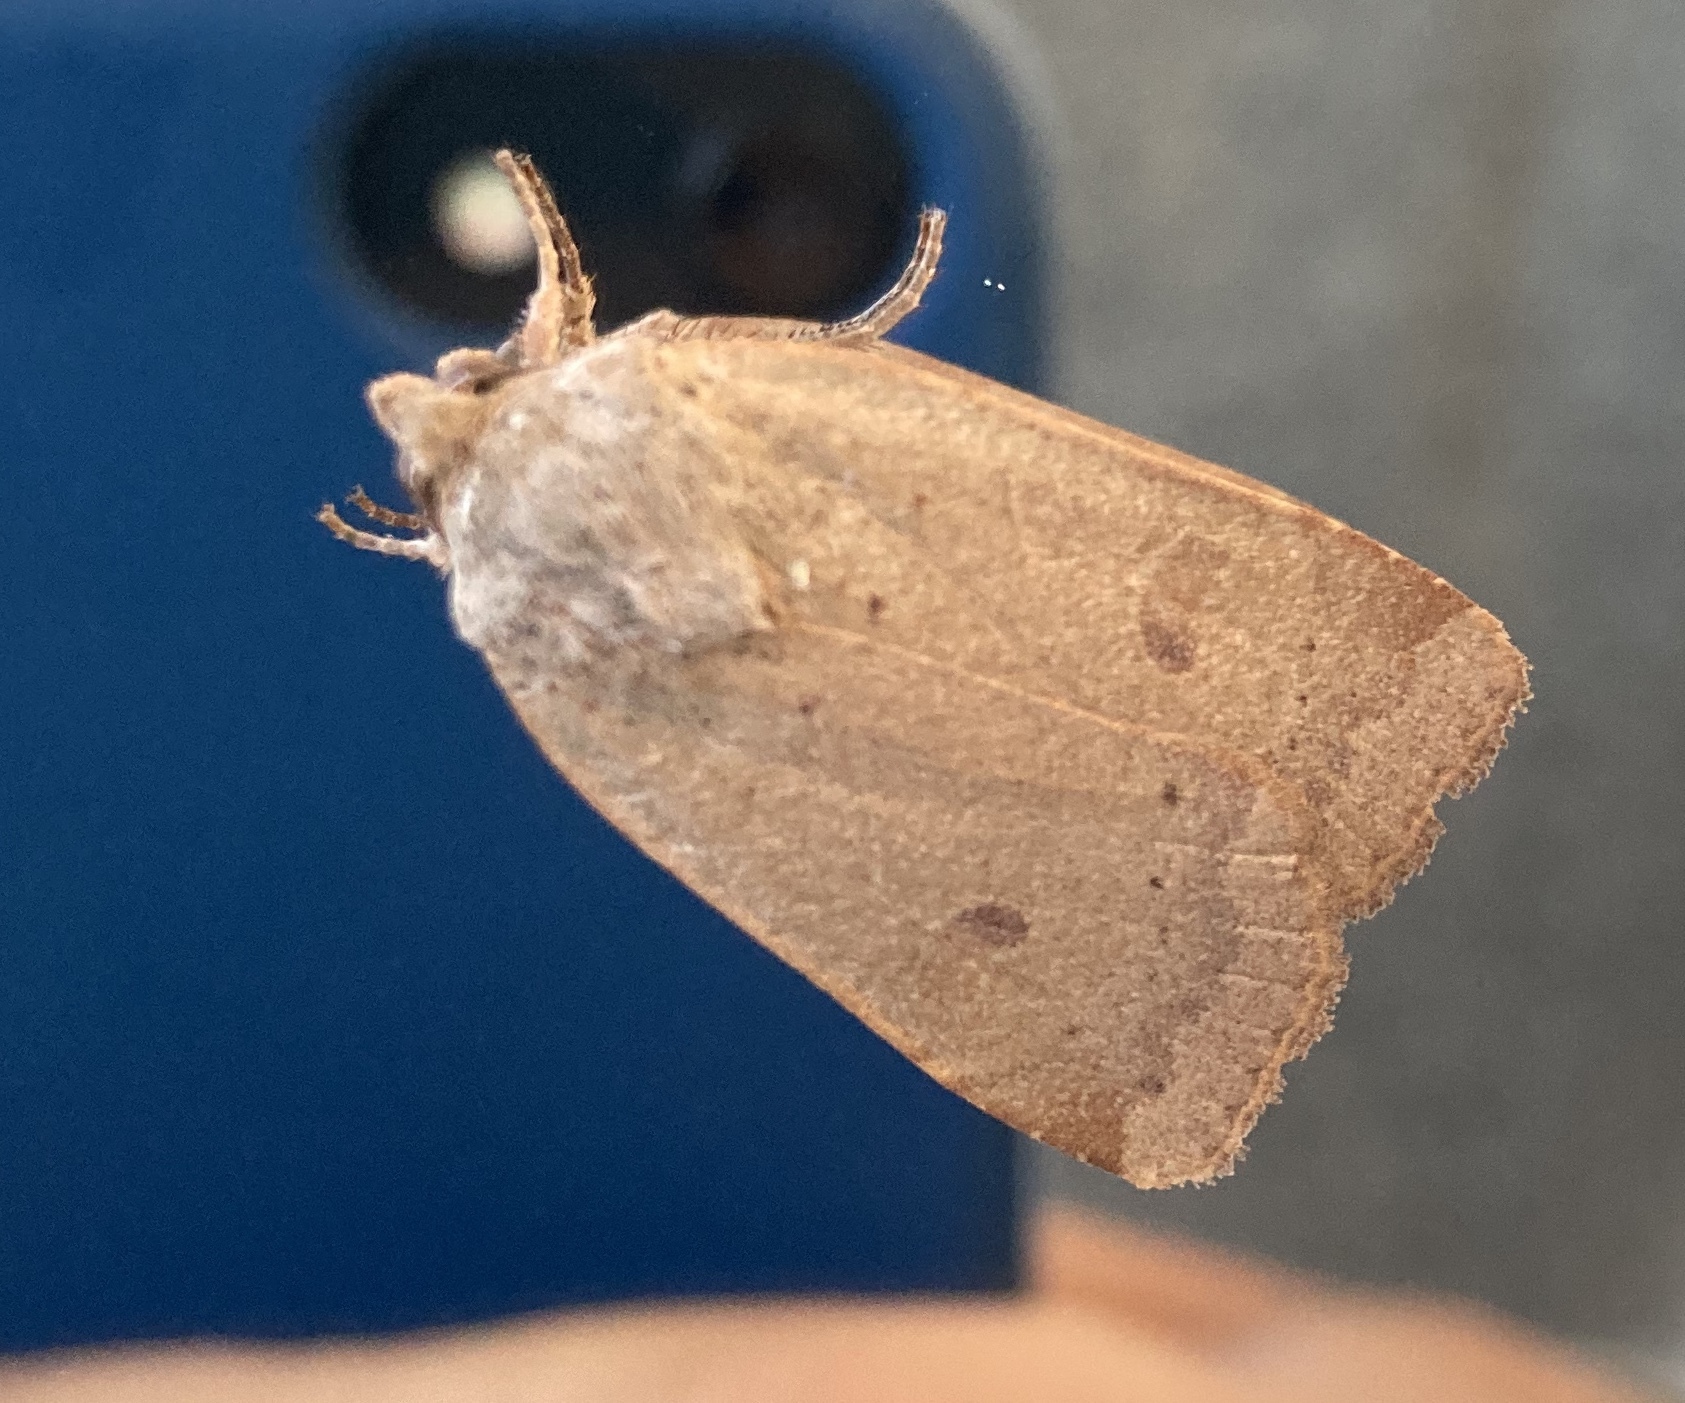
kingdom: Animalia
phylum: Arthropoda
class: Insecta
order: Lepidoptera
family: Noctuidae
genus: Noctua
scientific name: Noctua comes
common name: Lesser yellow underwing
